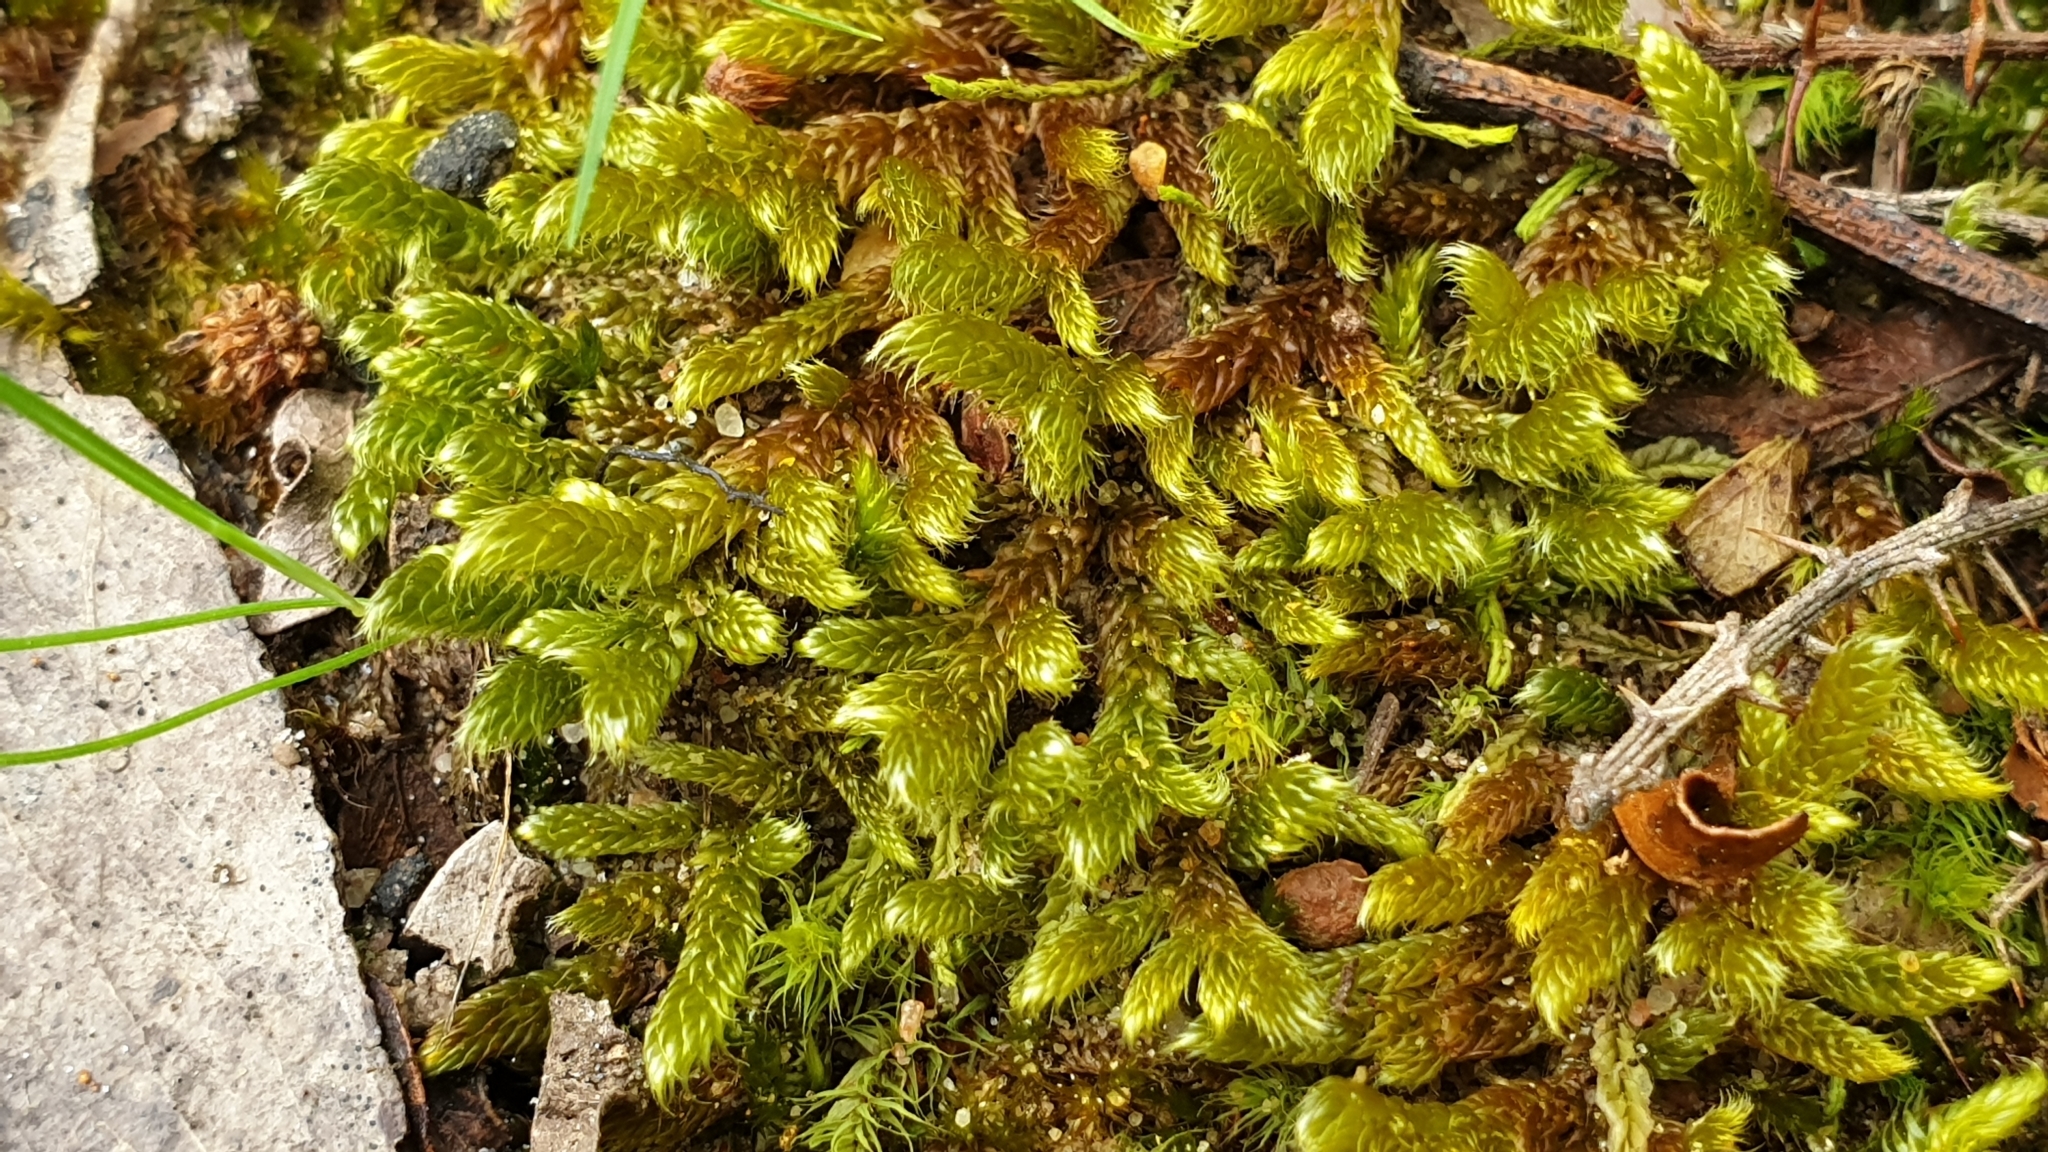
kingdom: Plantae
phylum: Bryophyta
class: Bryopsida
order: Hypnales
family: Hypnaceae
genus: Hypnum
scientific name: Hypnum cupressiforme
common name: Cypress-leaved plait-moss
